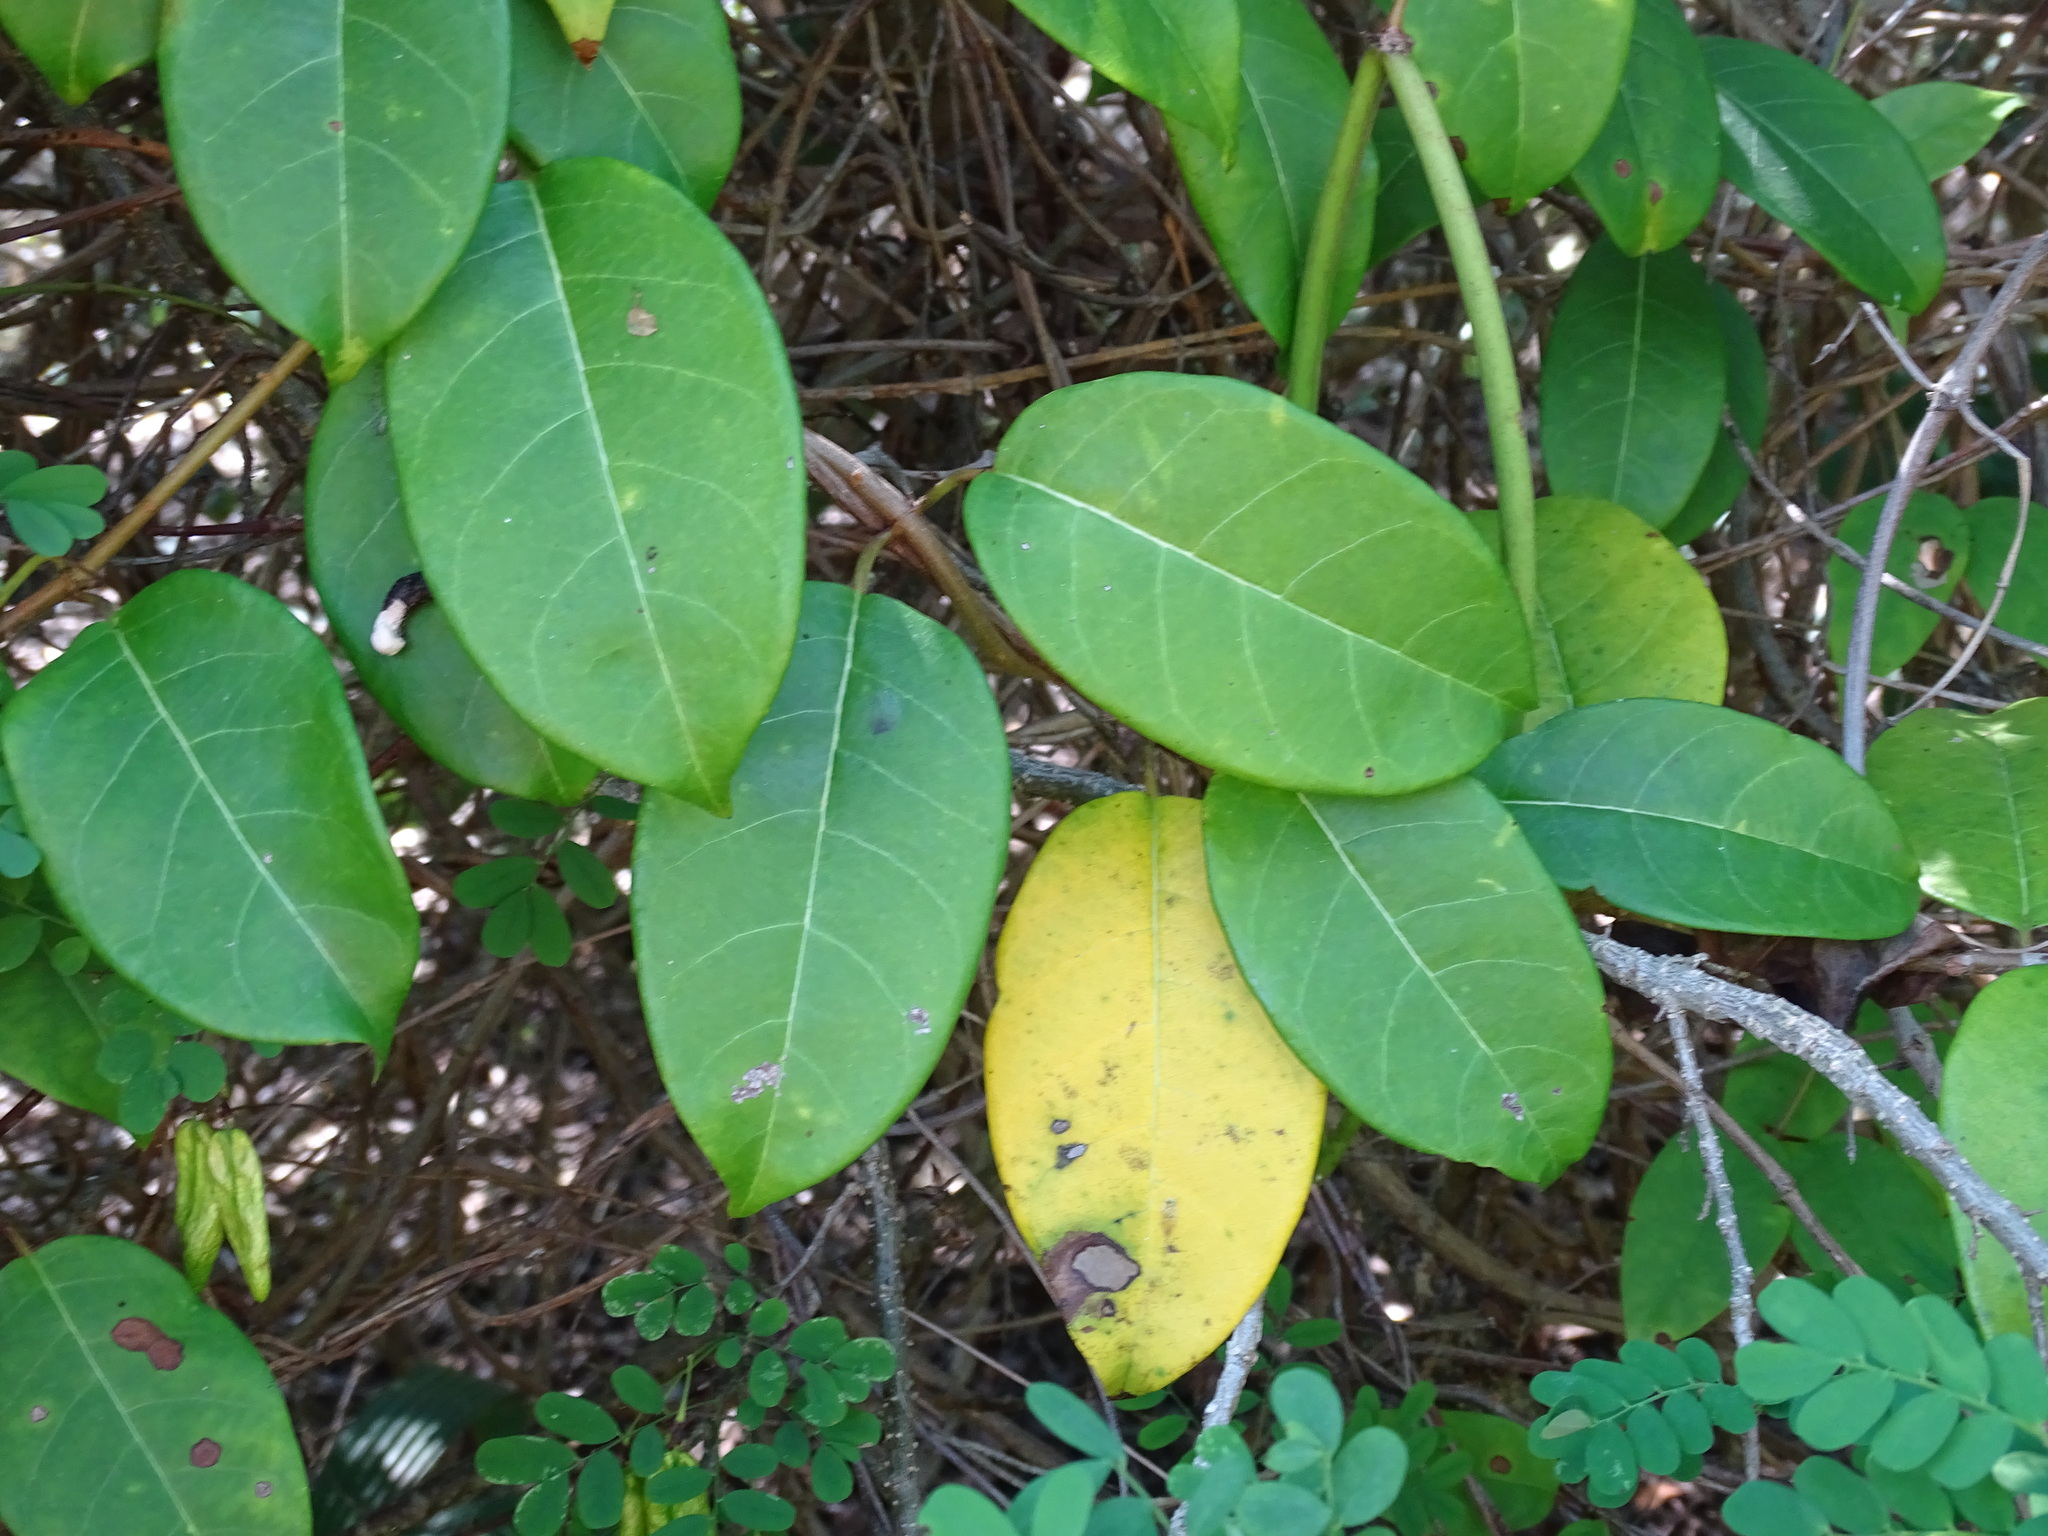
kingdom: Plantae
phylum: Tracheophyta
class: Magnoliopsida
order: Gentianales
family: Apocynaceae
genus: Pentalinon
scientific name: Pentalinon andrieuxii
